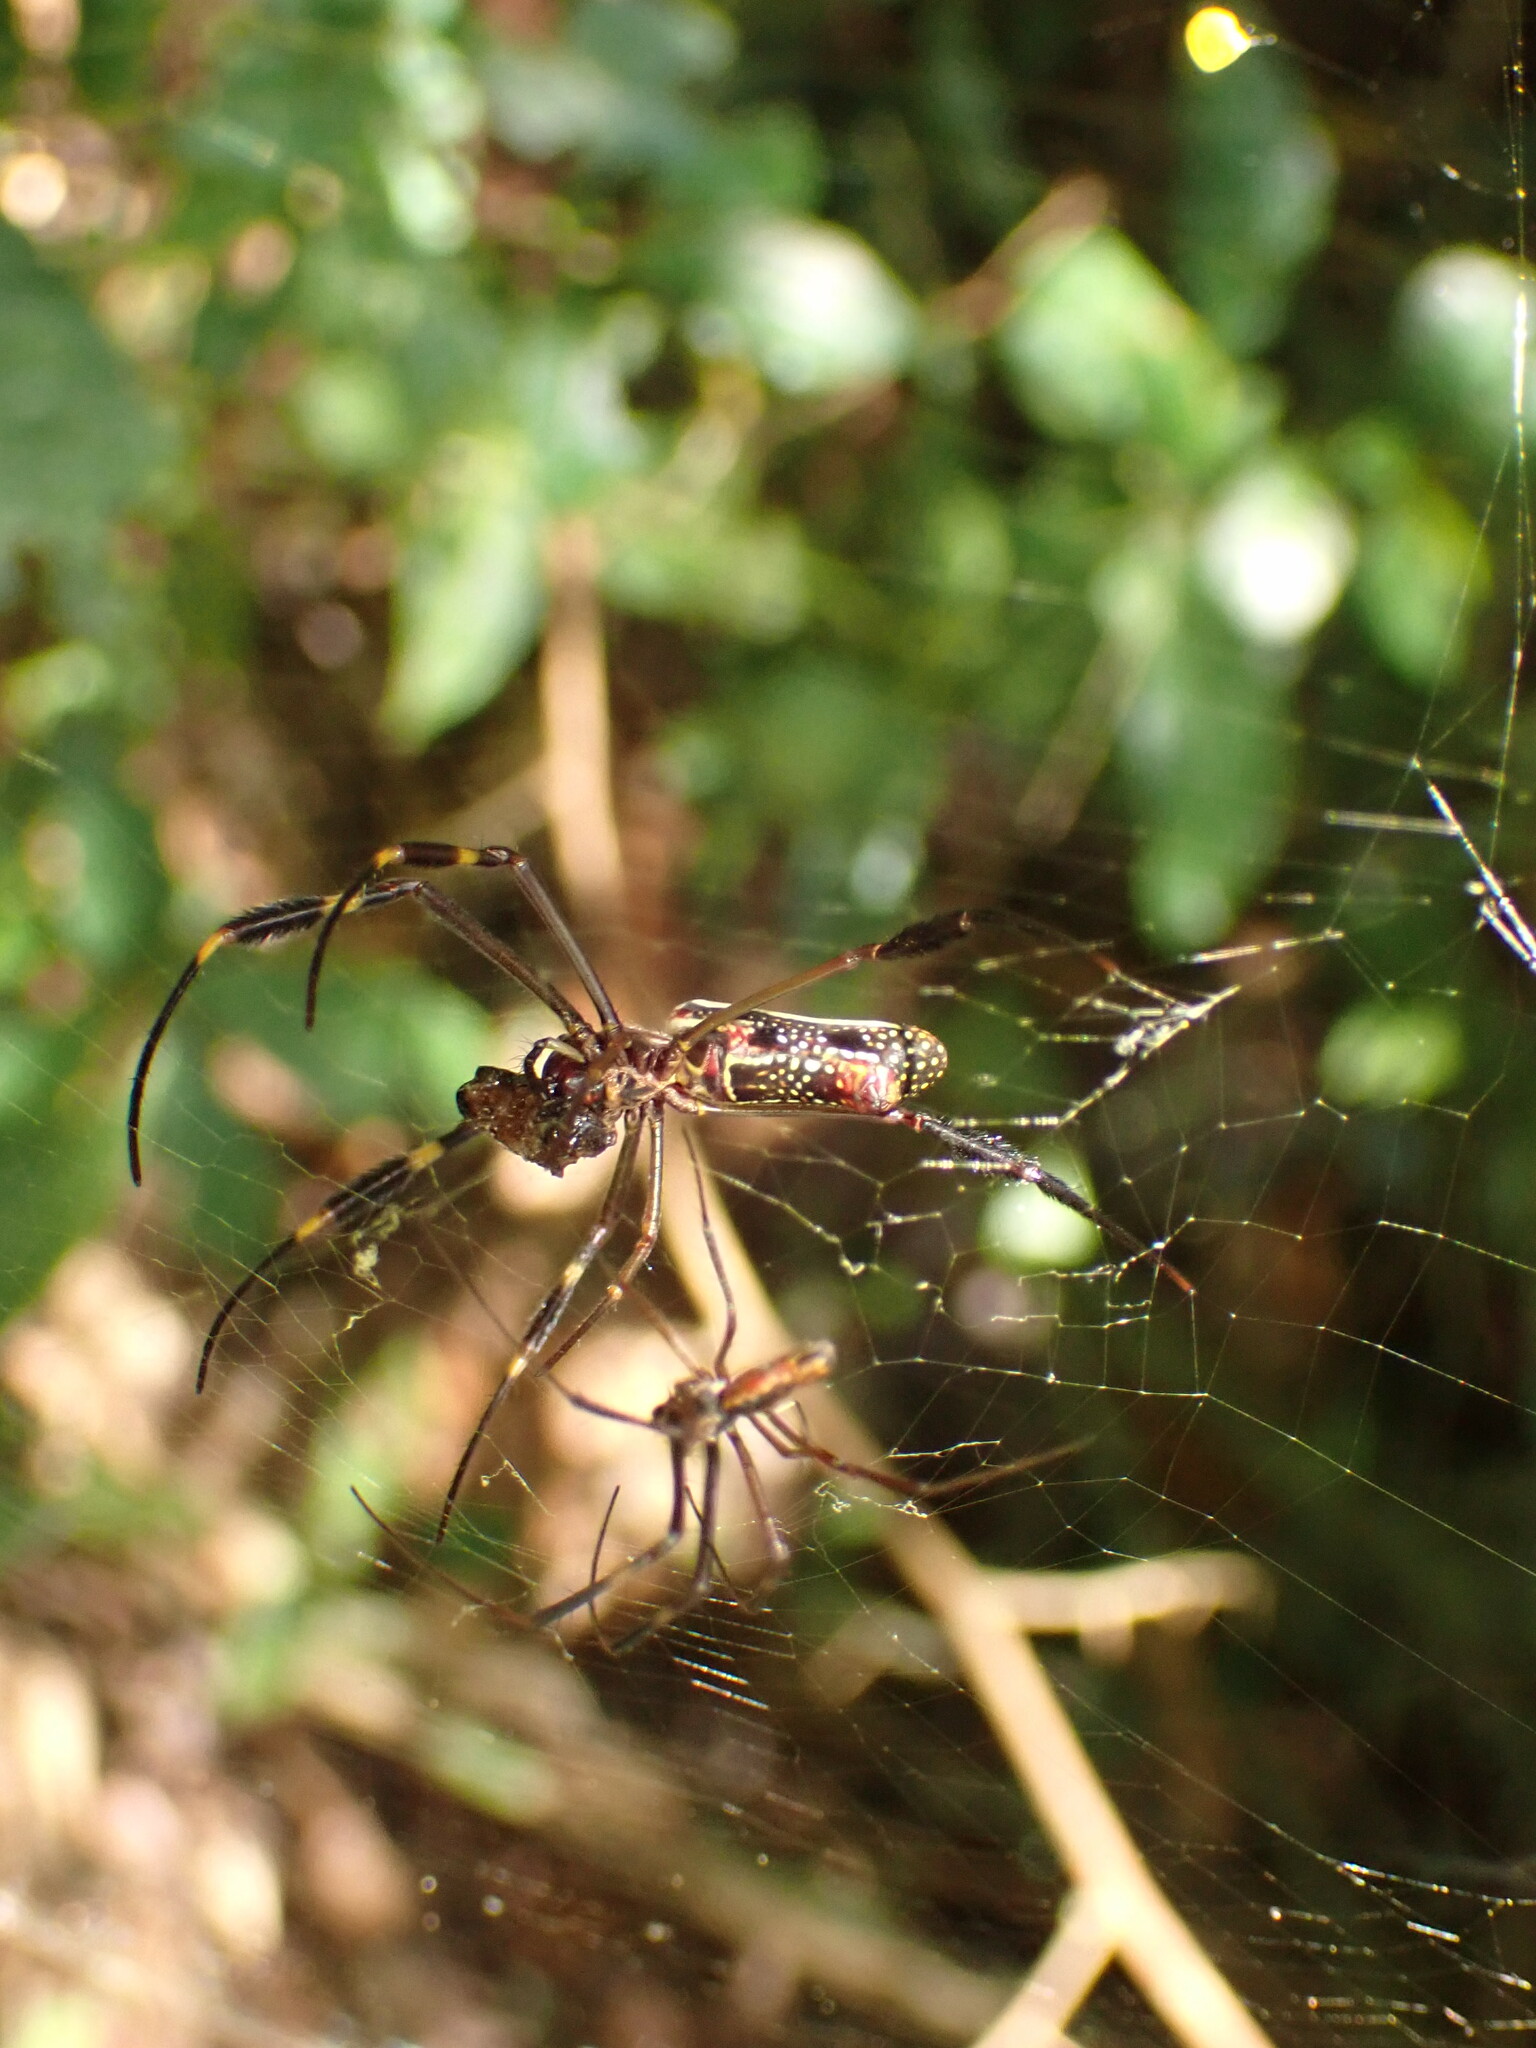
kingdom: Animalia
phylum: Arthropoda
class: Arachnida
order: Araneae
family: Araneidae
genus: Trichonephila
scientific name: Trichonephila clavipes
